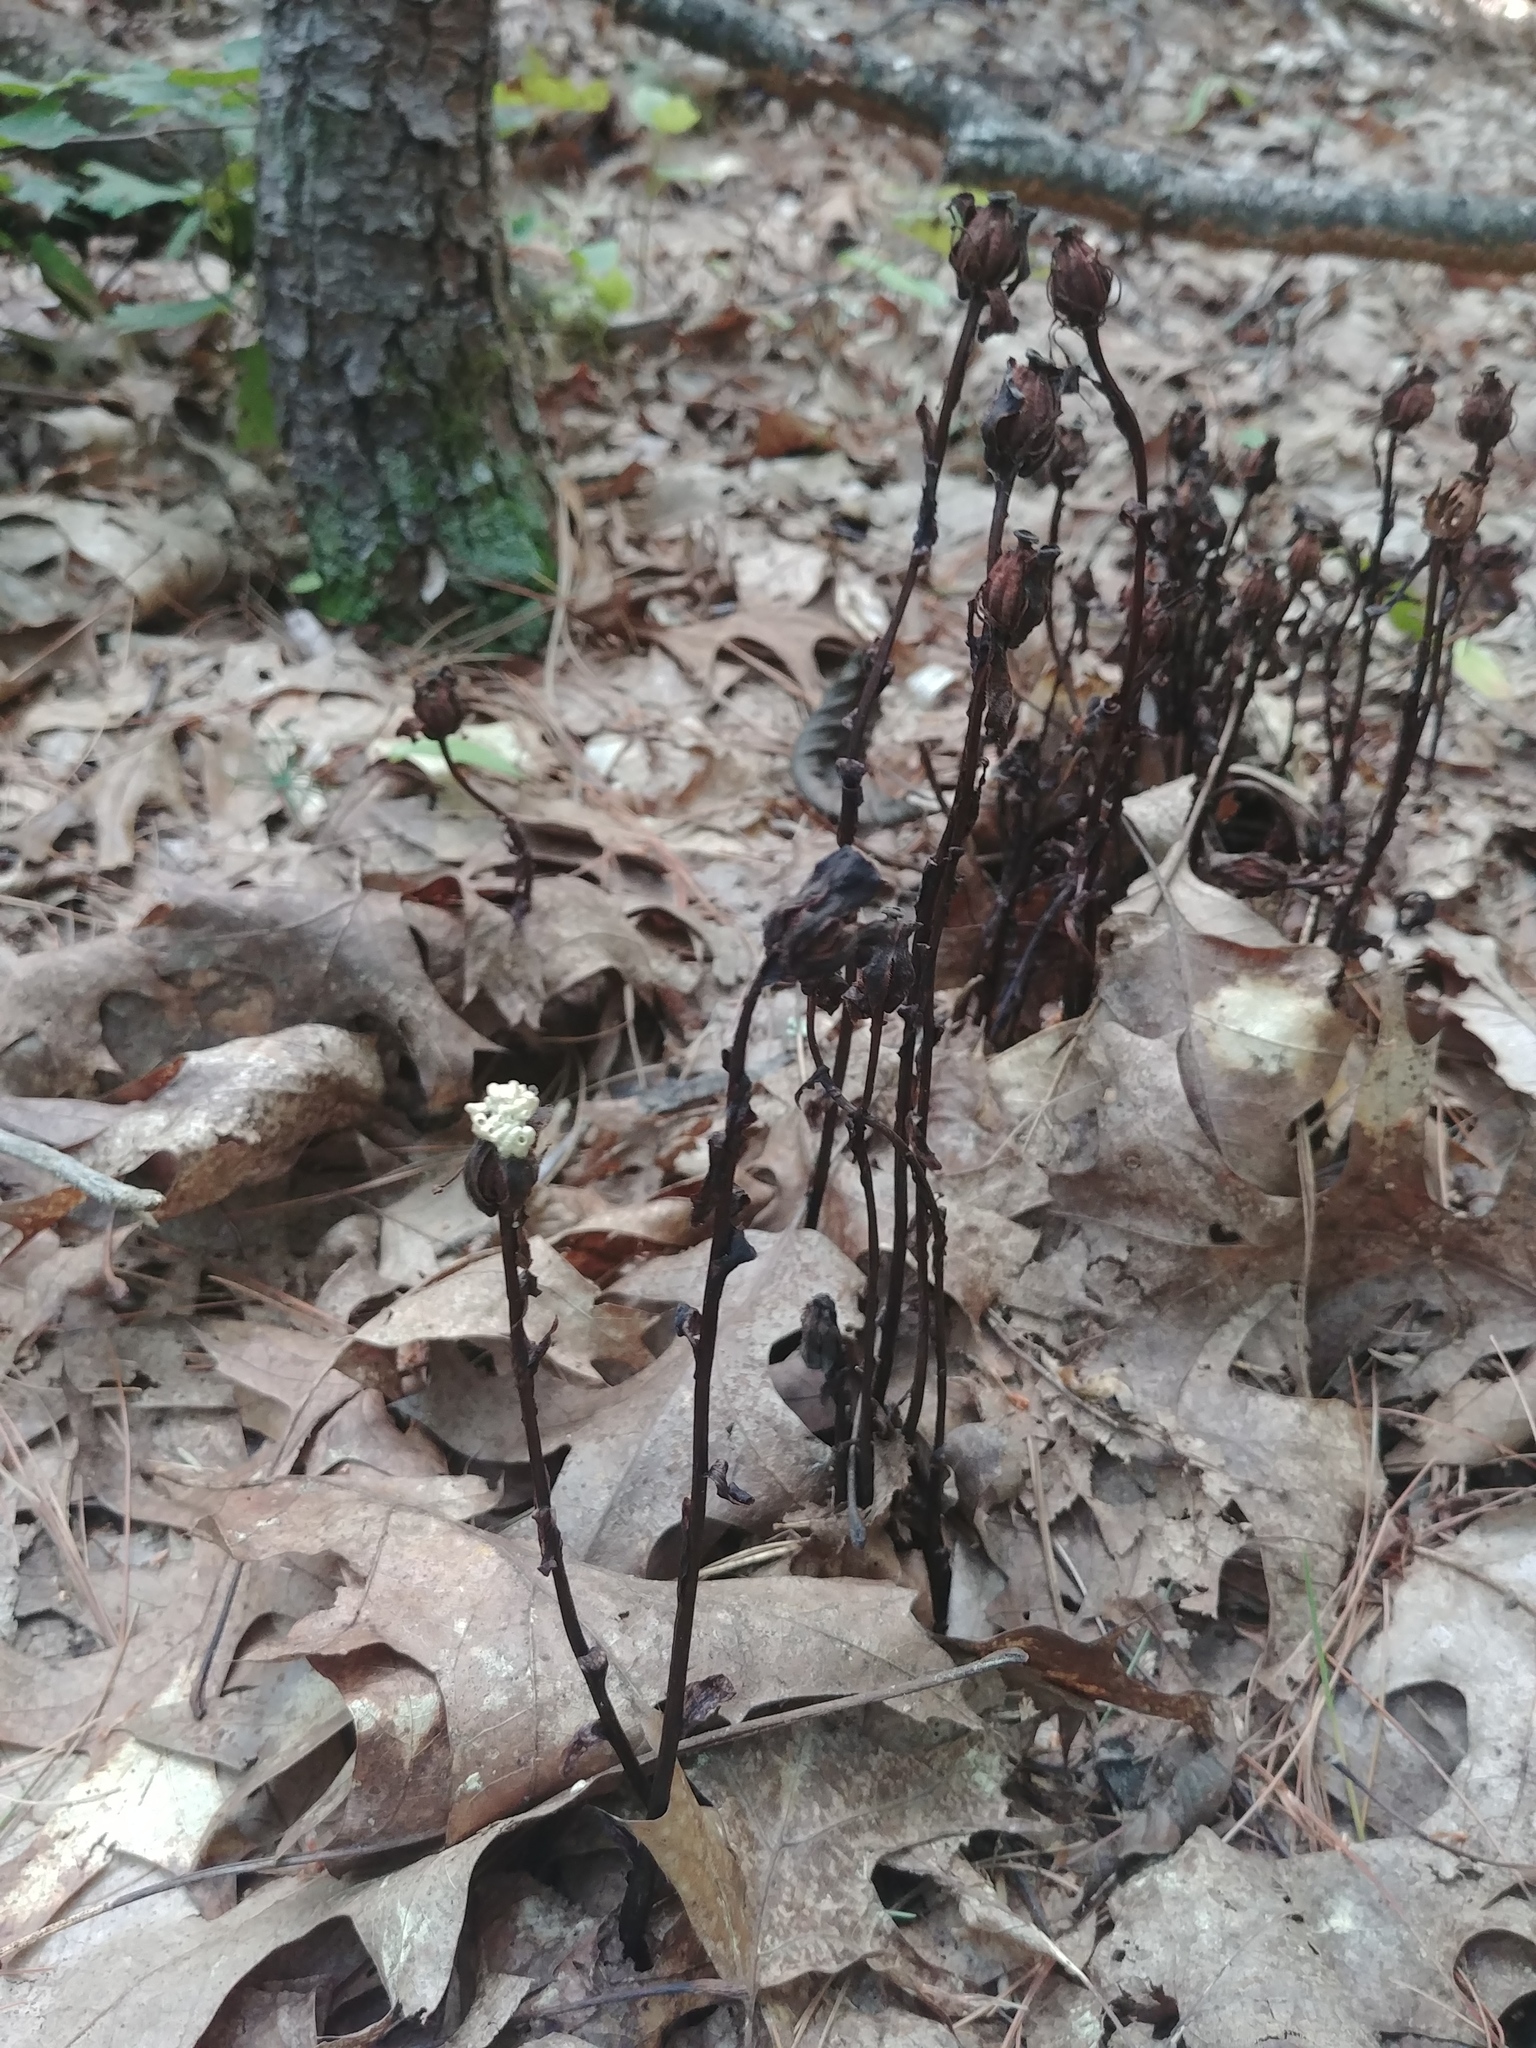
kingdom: Plantae
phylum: Tracheophyta
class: Magnoliopsida
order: Ericales
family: Ericaceae
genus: Monotropa
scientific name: Monotropa uniflora
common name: Convulsion root
